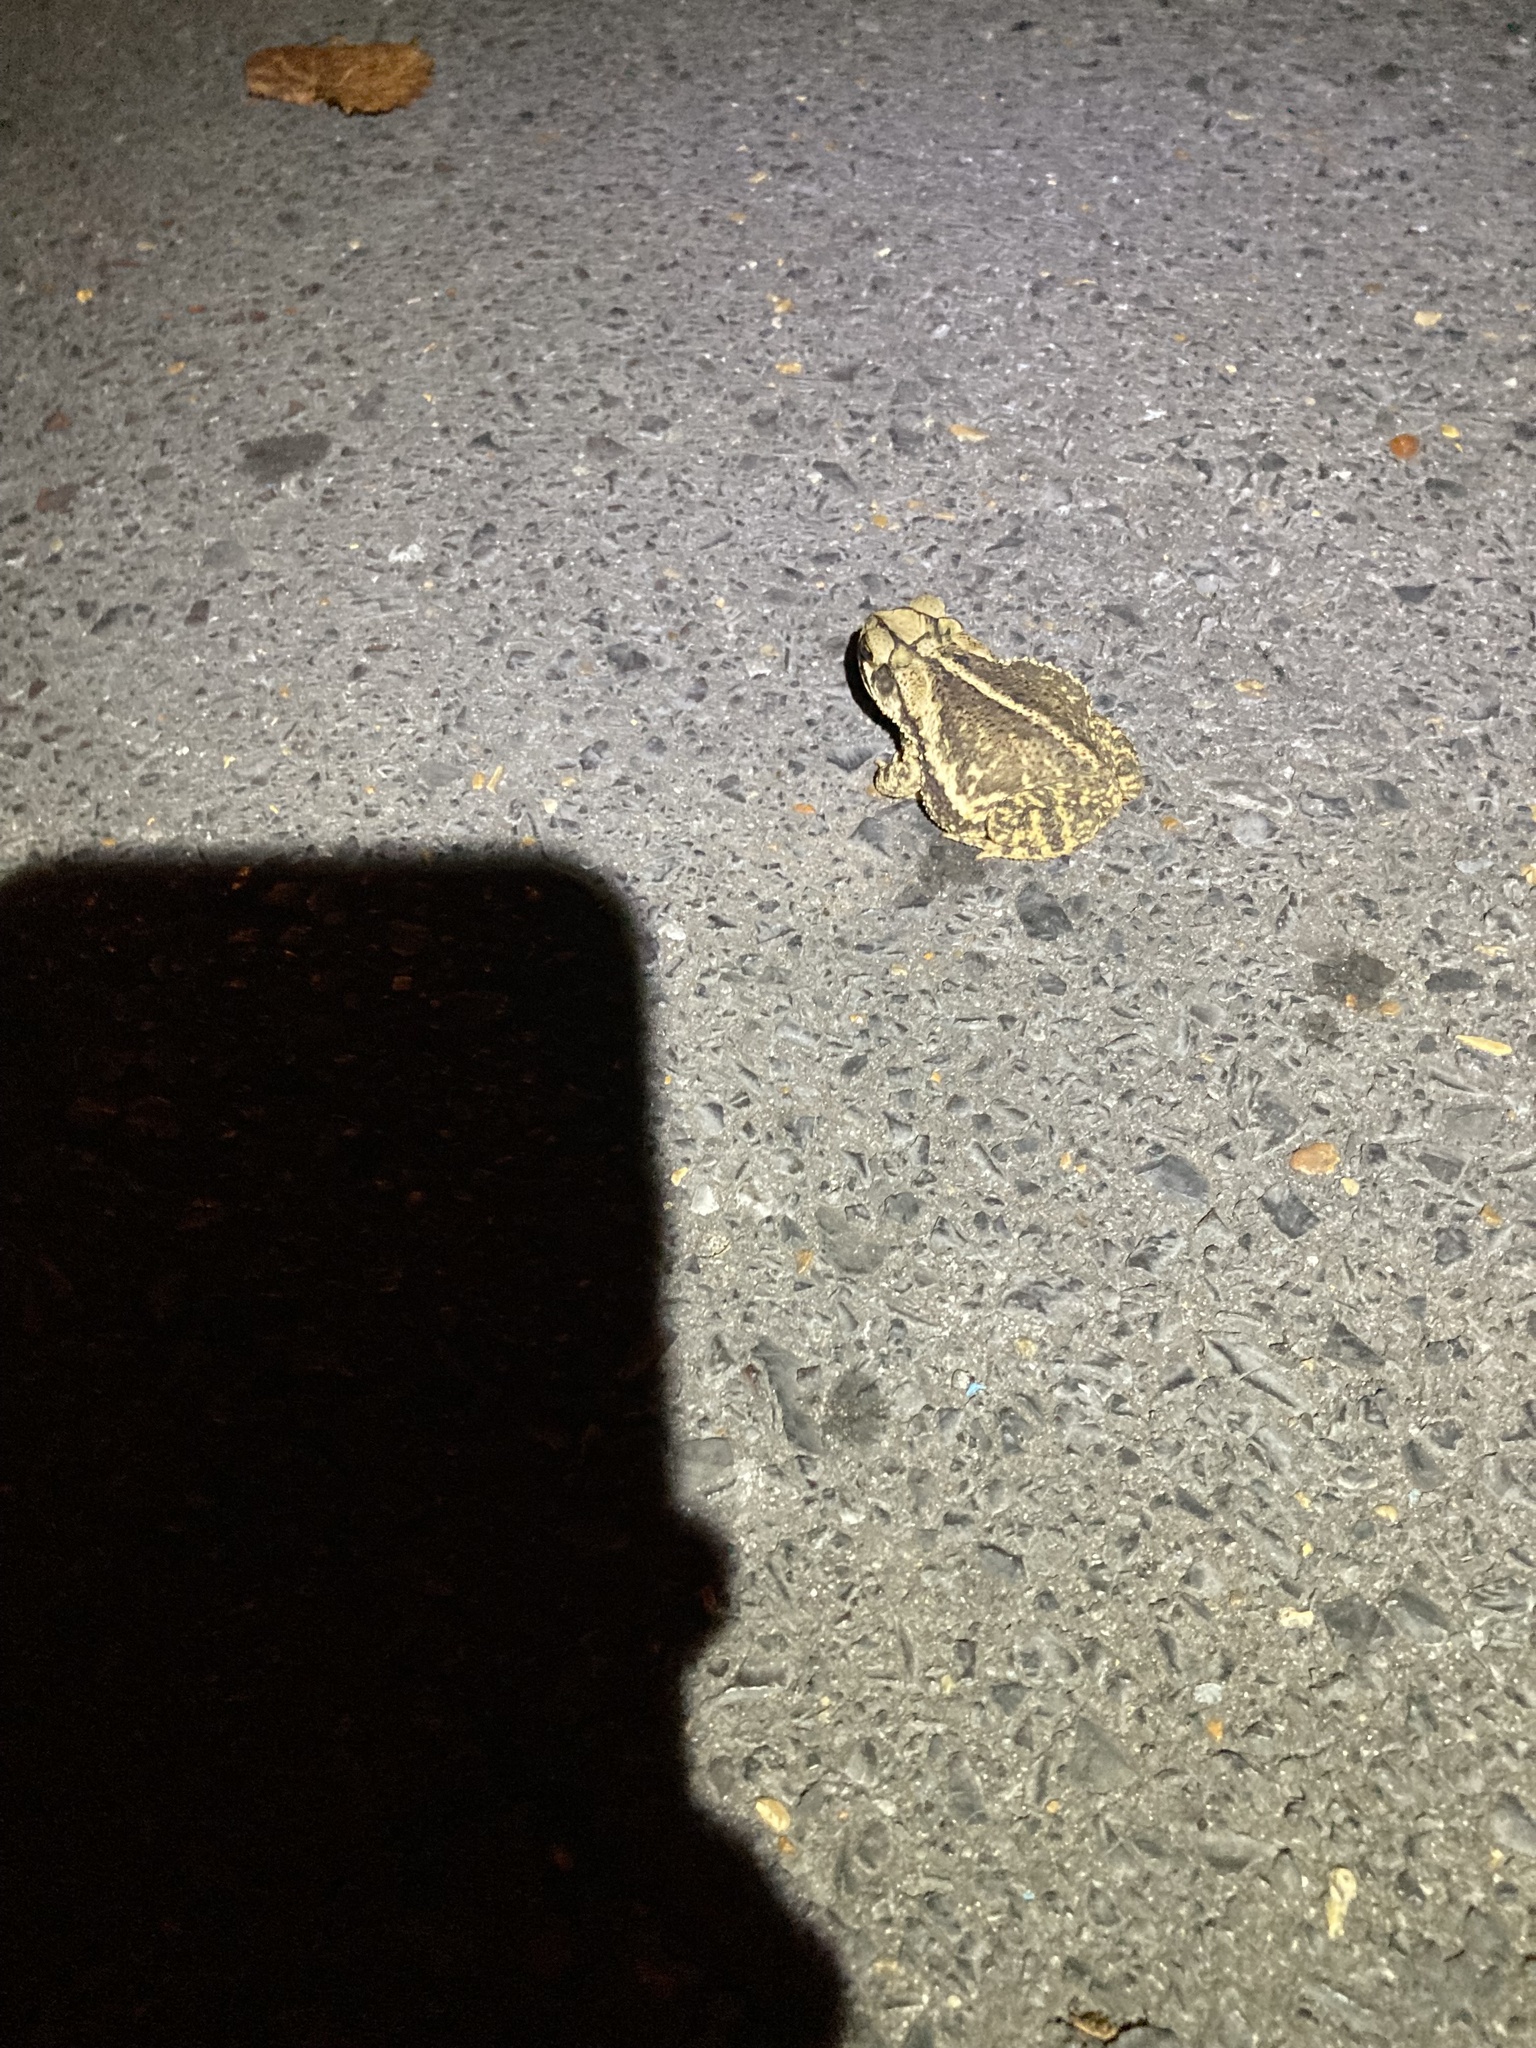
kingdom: Animalia
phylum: Chordata
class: Amphibia
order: Anura
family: Bufonidae
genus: Incilius
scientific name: Incilius nebulifer
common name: Gulf coast toad
